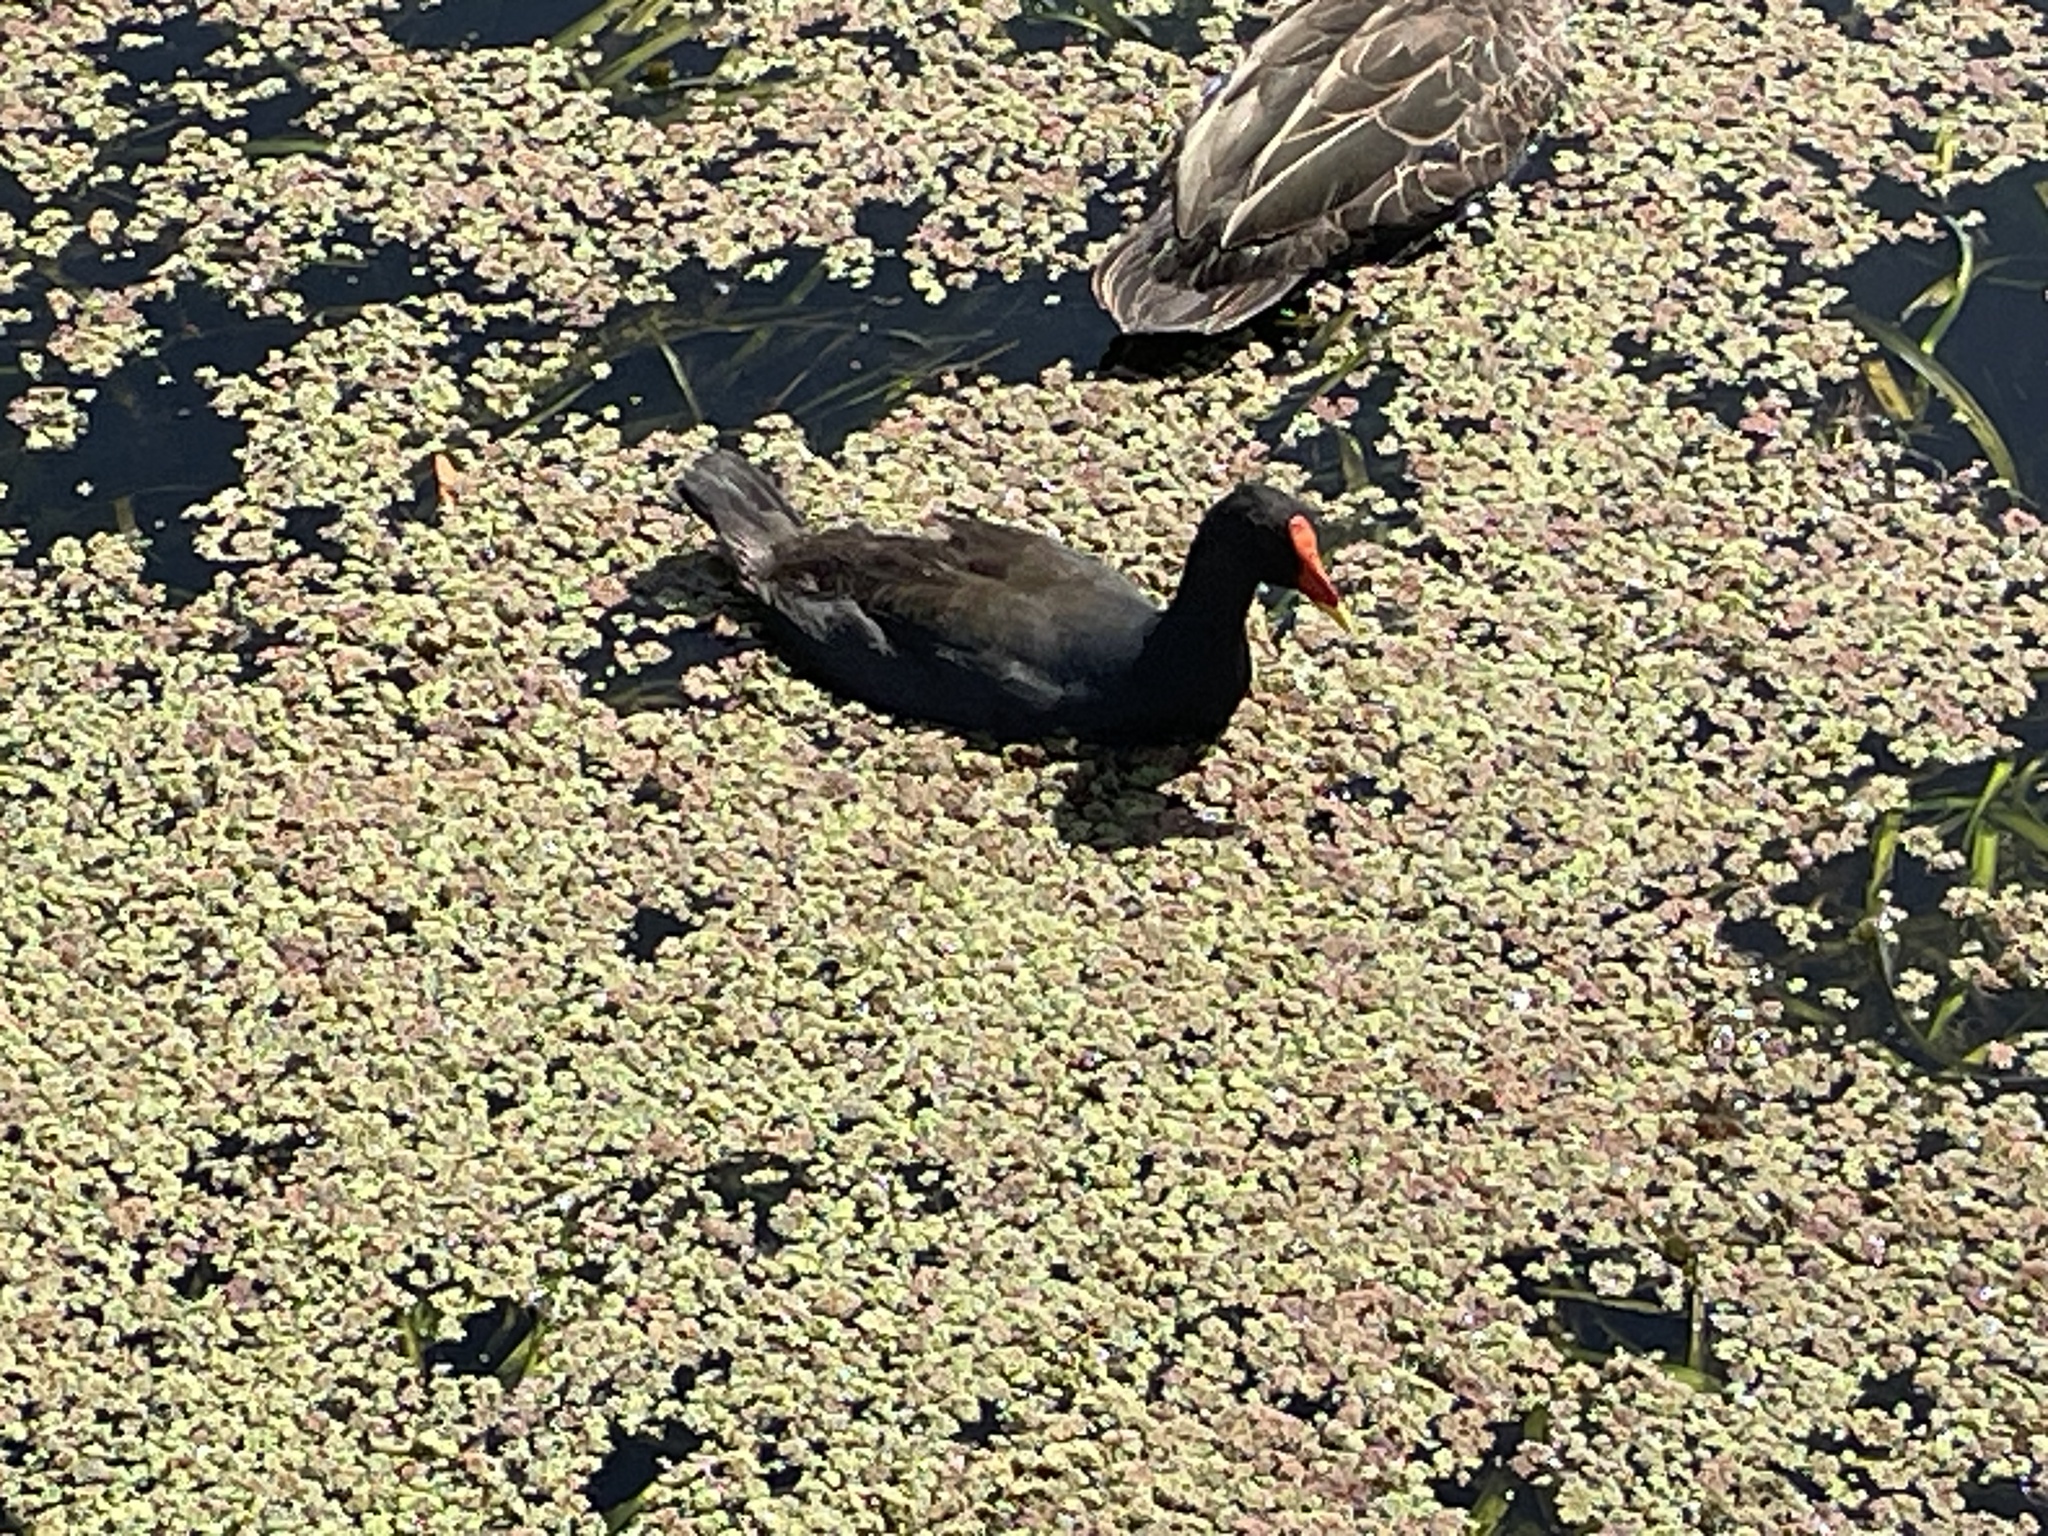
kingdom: Animalia
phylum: Chordata
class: Aves
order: Gruiformes
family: Rallidae
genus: Gallinula
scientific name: Gallinula tenebrosa
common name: Dusky moorhen
